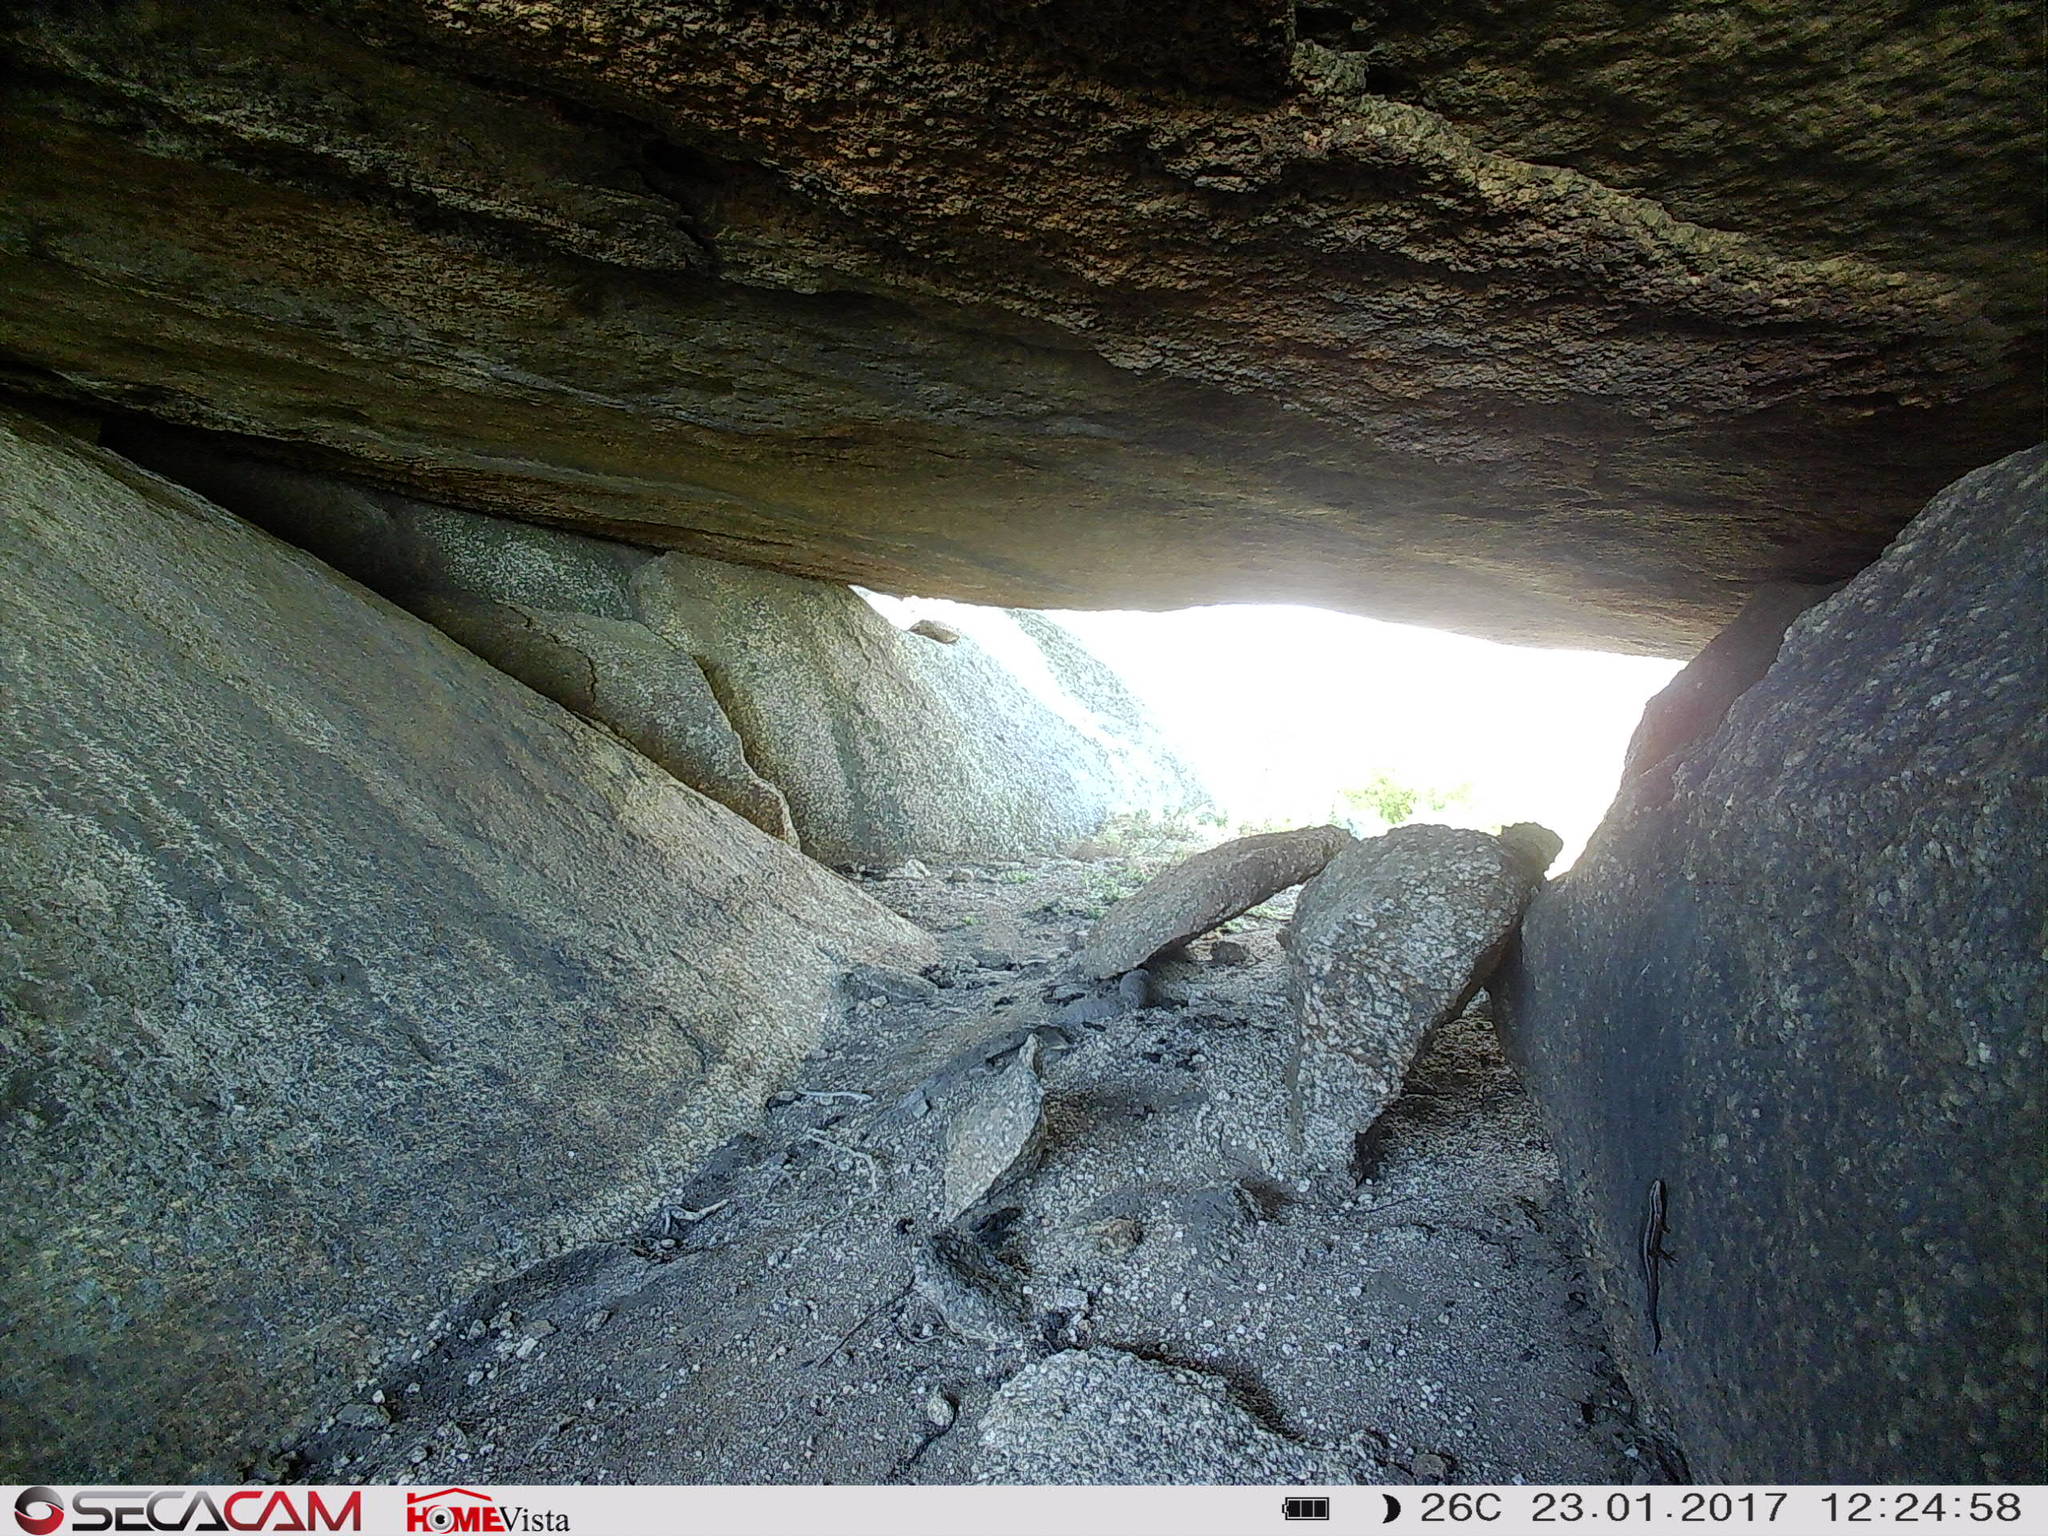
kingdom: Animalia
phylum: Chordata
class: Squamata
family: Scincidae
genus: Trachylepis
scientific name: Trachylepis homalocephala
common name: Red-sided skink
